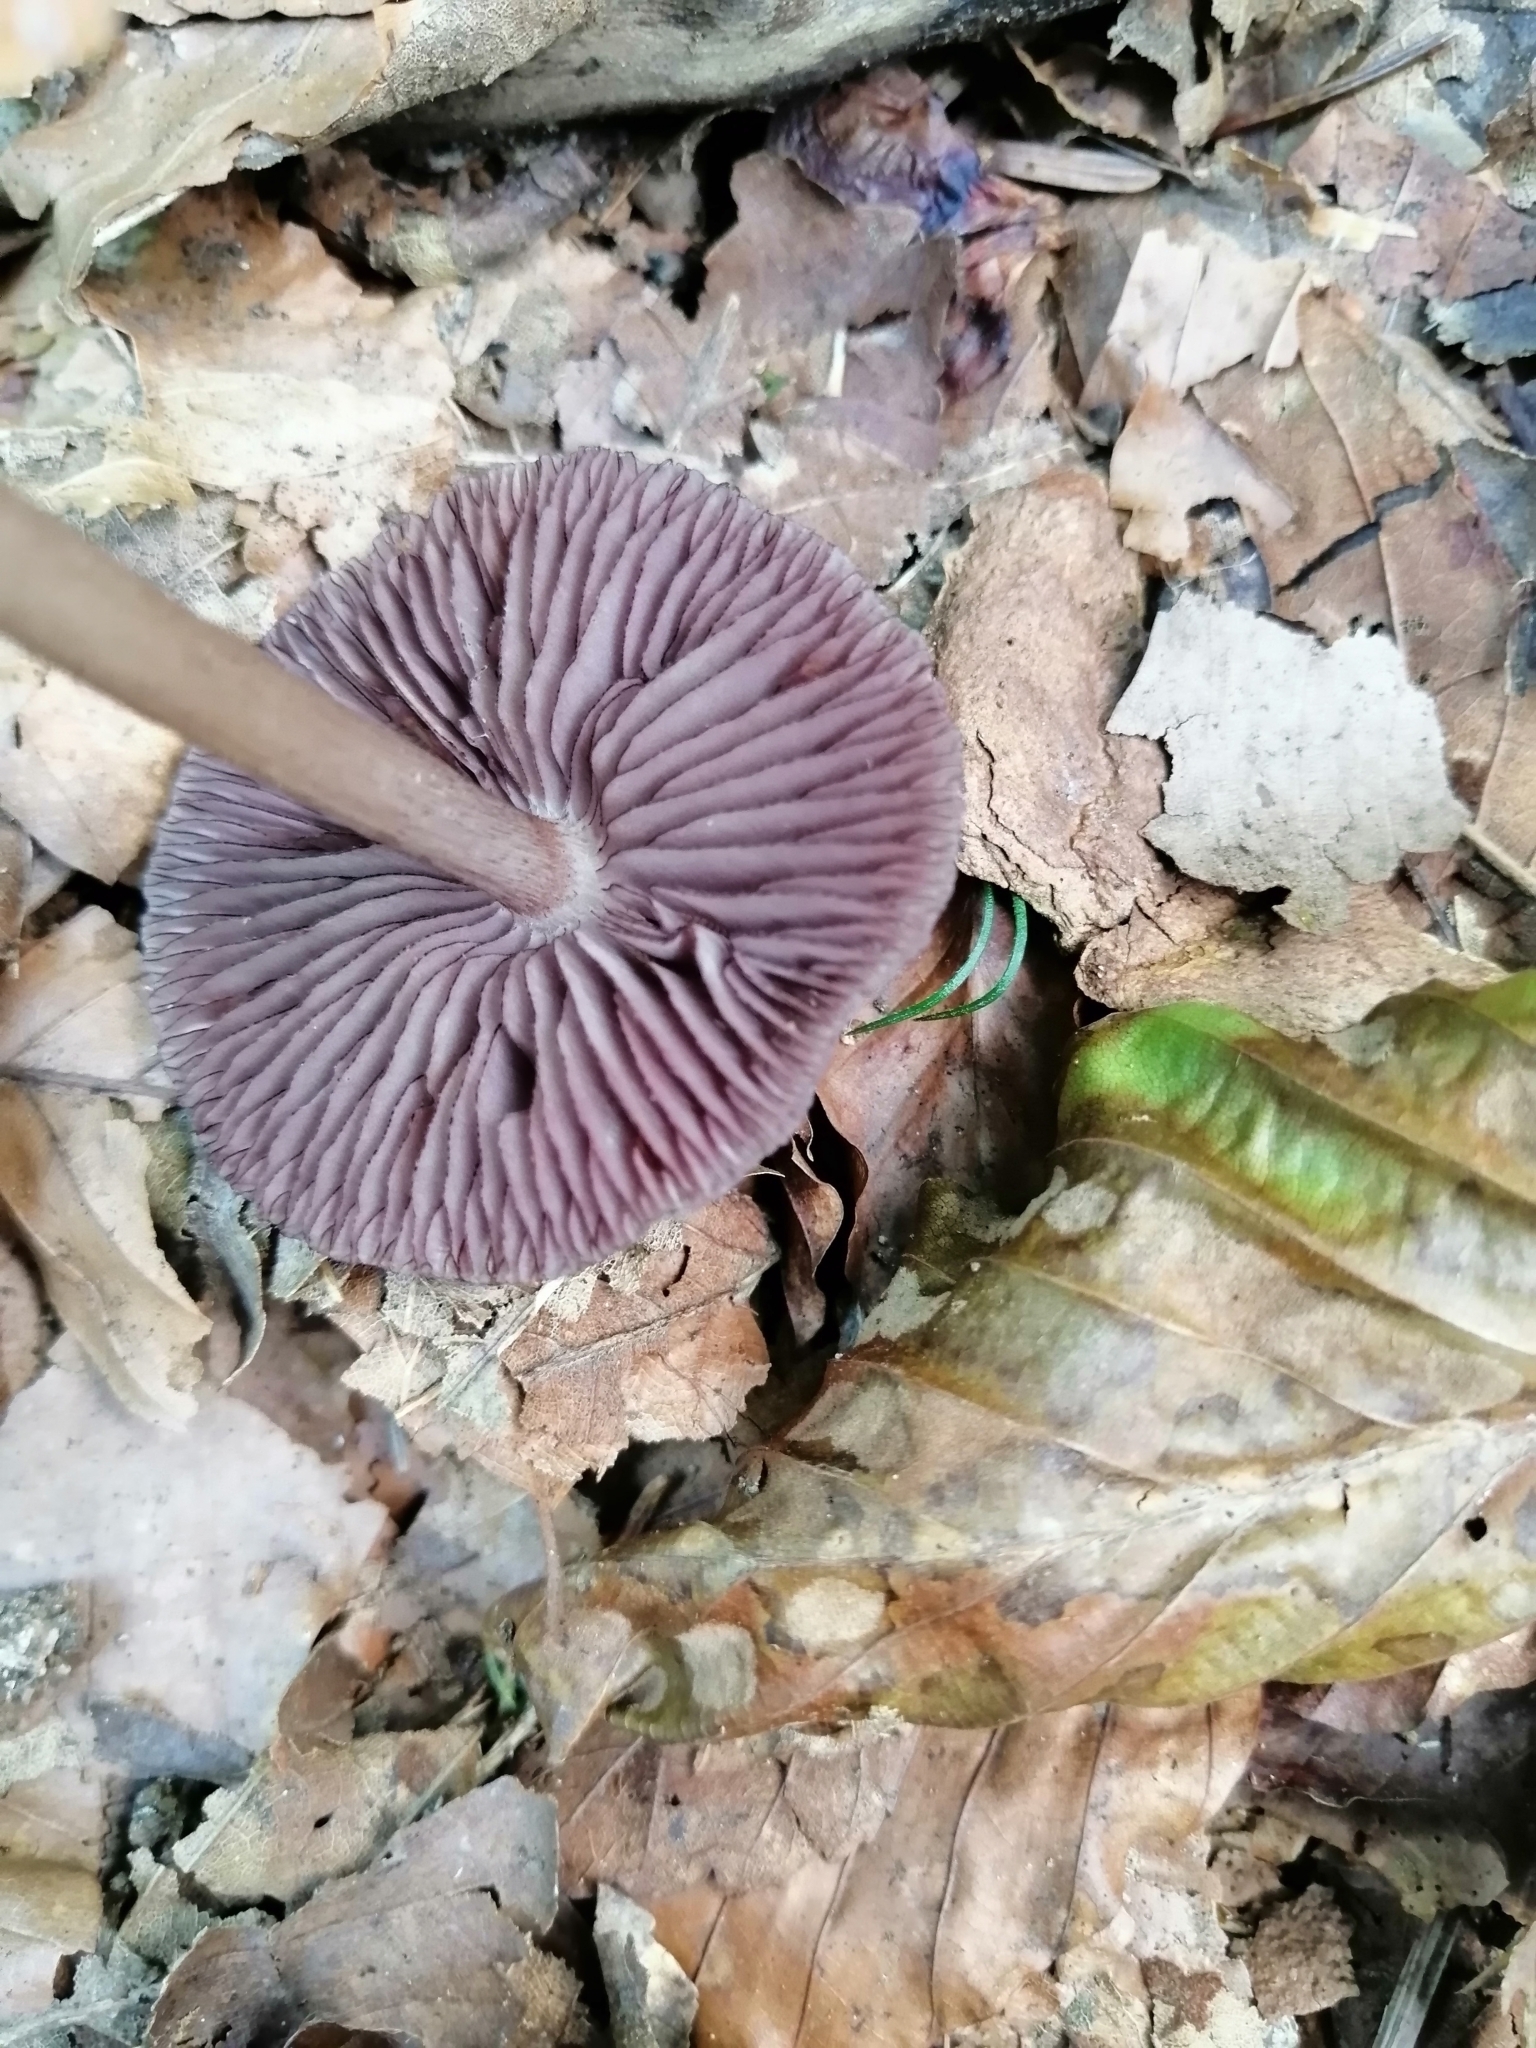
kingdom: Fungi
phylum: Basidiomycota
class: Agaricomycetes
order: Agaricales
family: Mycenaceae
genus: Mycena
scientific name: Mycena pelianthina
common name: Blackedge bonnet
